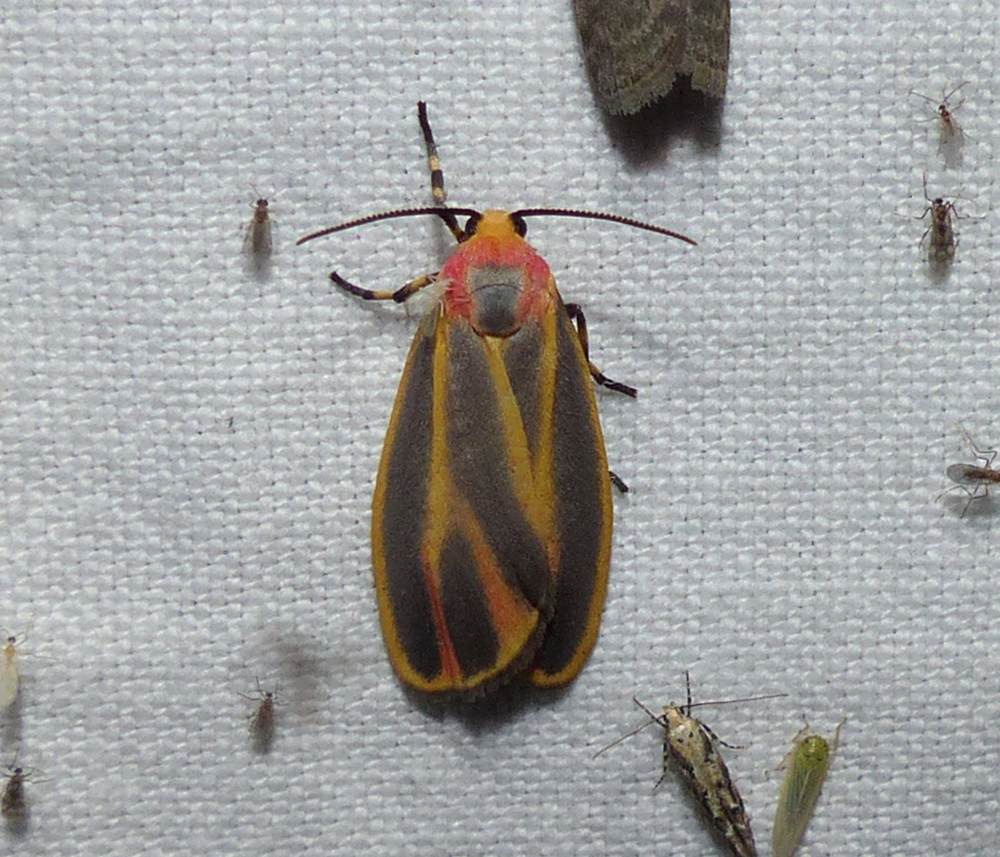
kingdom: Animalia
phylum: Arthropoda
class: Insecta
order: Lepidoptera
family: Erebidae
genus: Hypoprepia
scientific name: Hypoprepia fucosa
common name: Painted lichen moth
